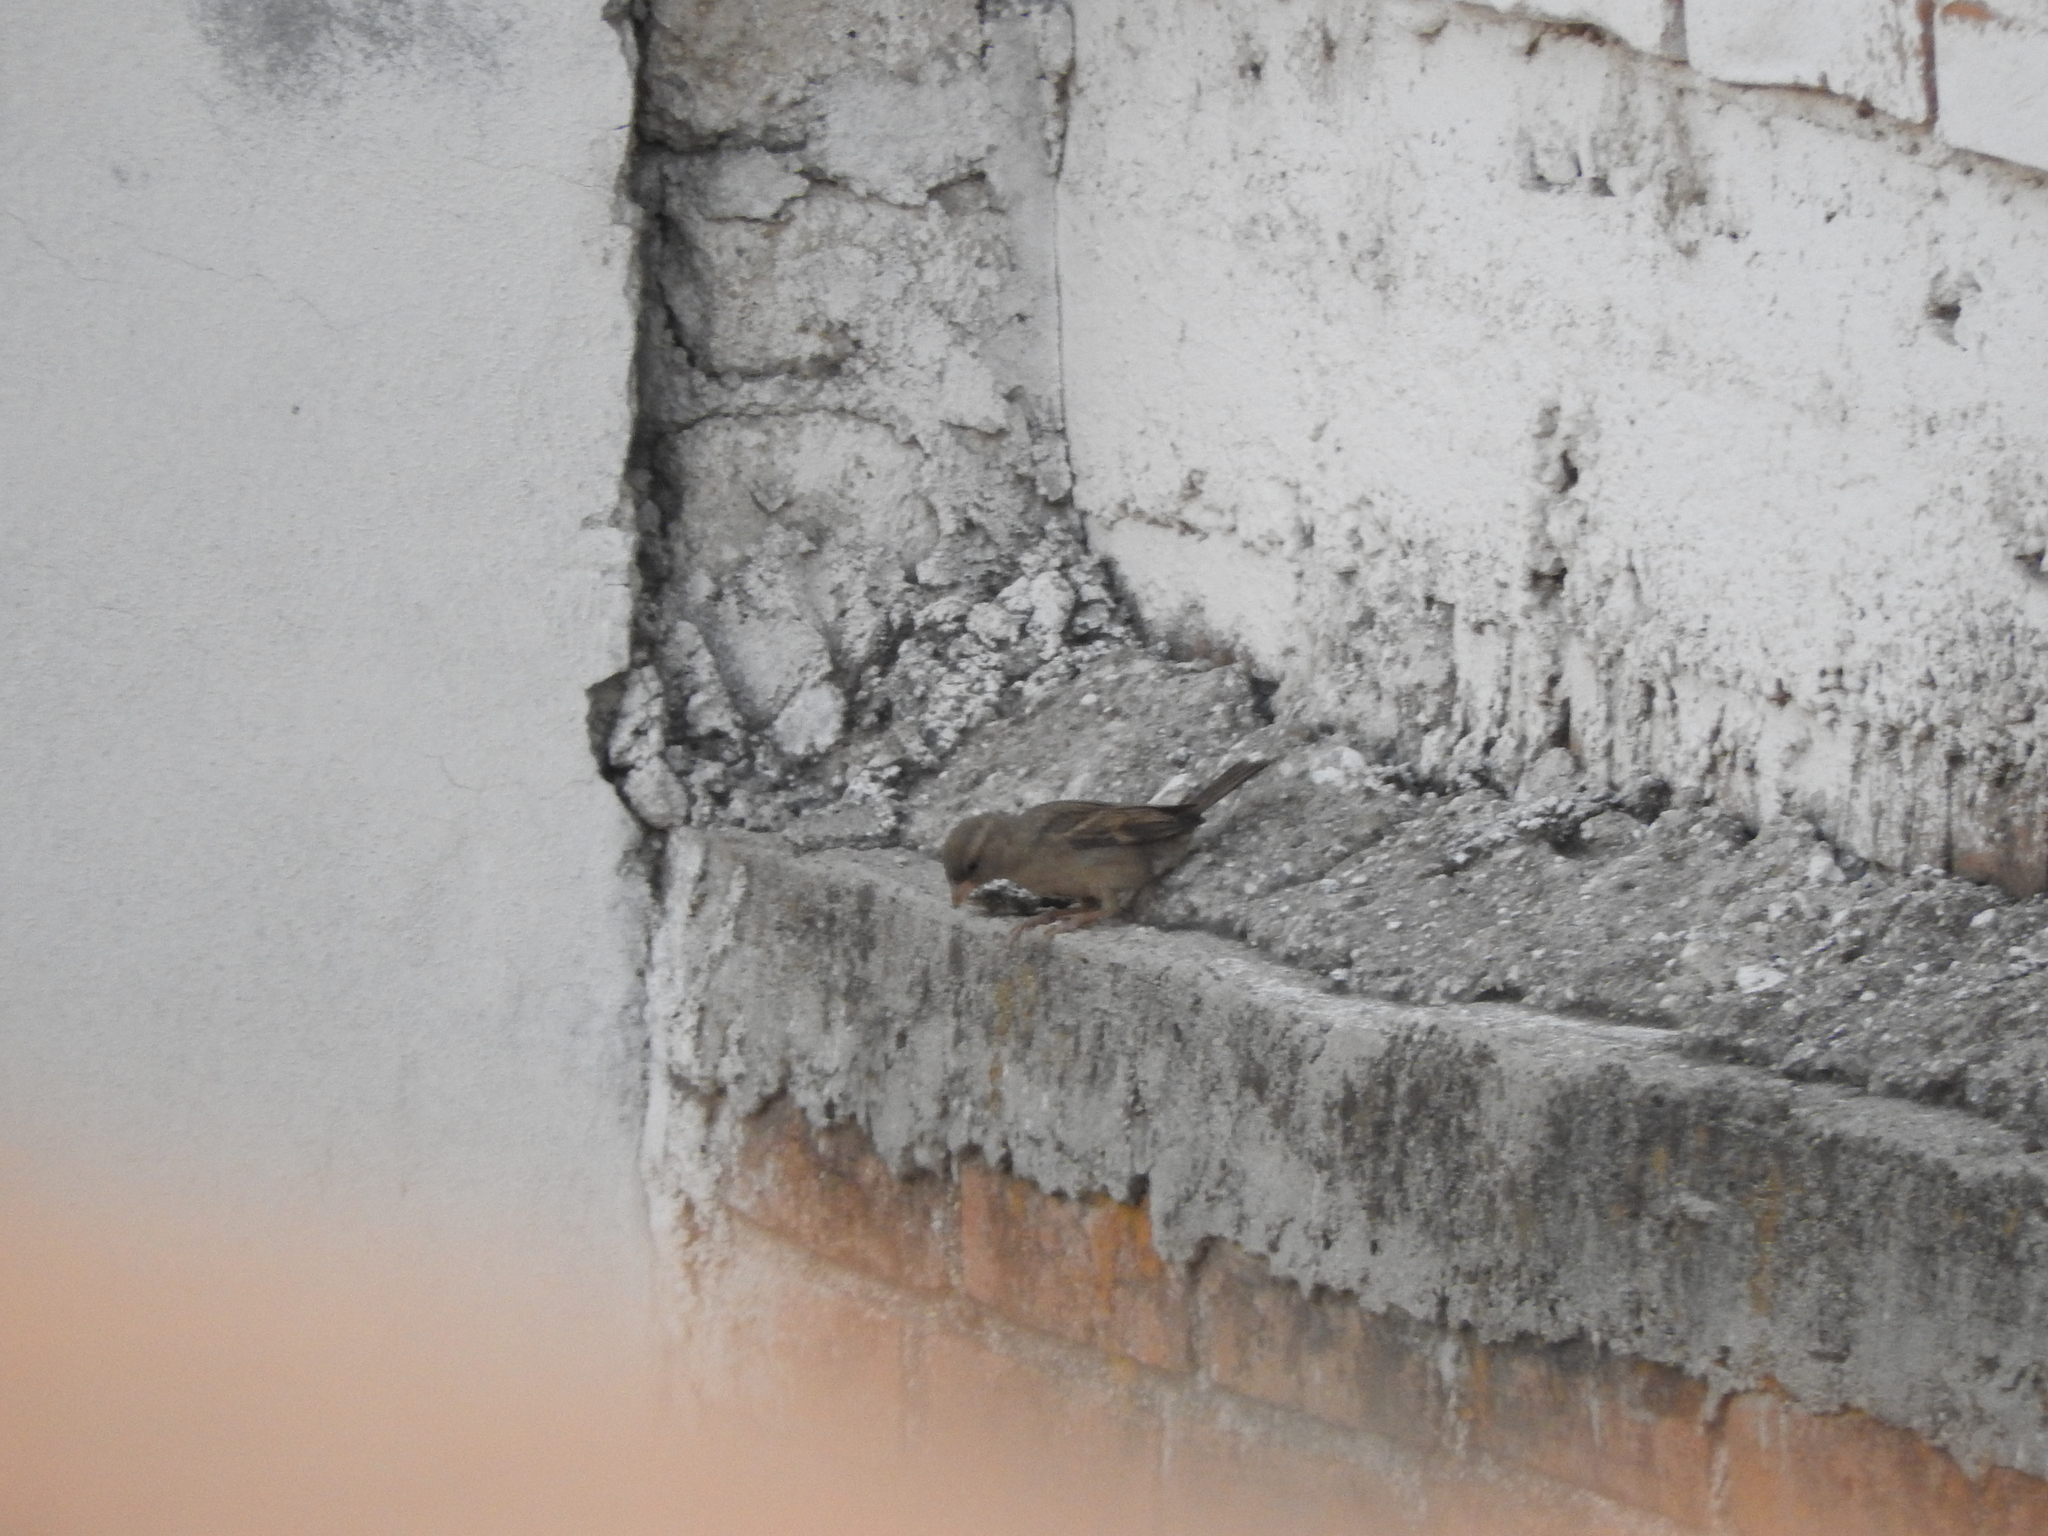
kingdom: Animalia
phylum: Chordata
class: Aves
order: Passeriformes
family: Passeridae
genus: Passer
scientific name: Passer domesticus
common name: House sparrow
